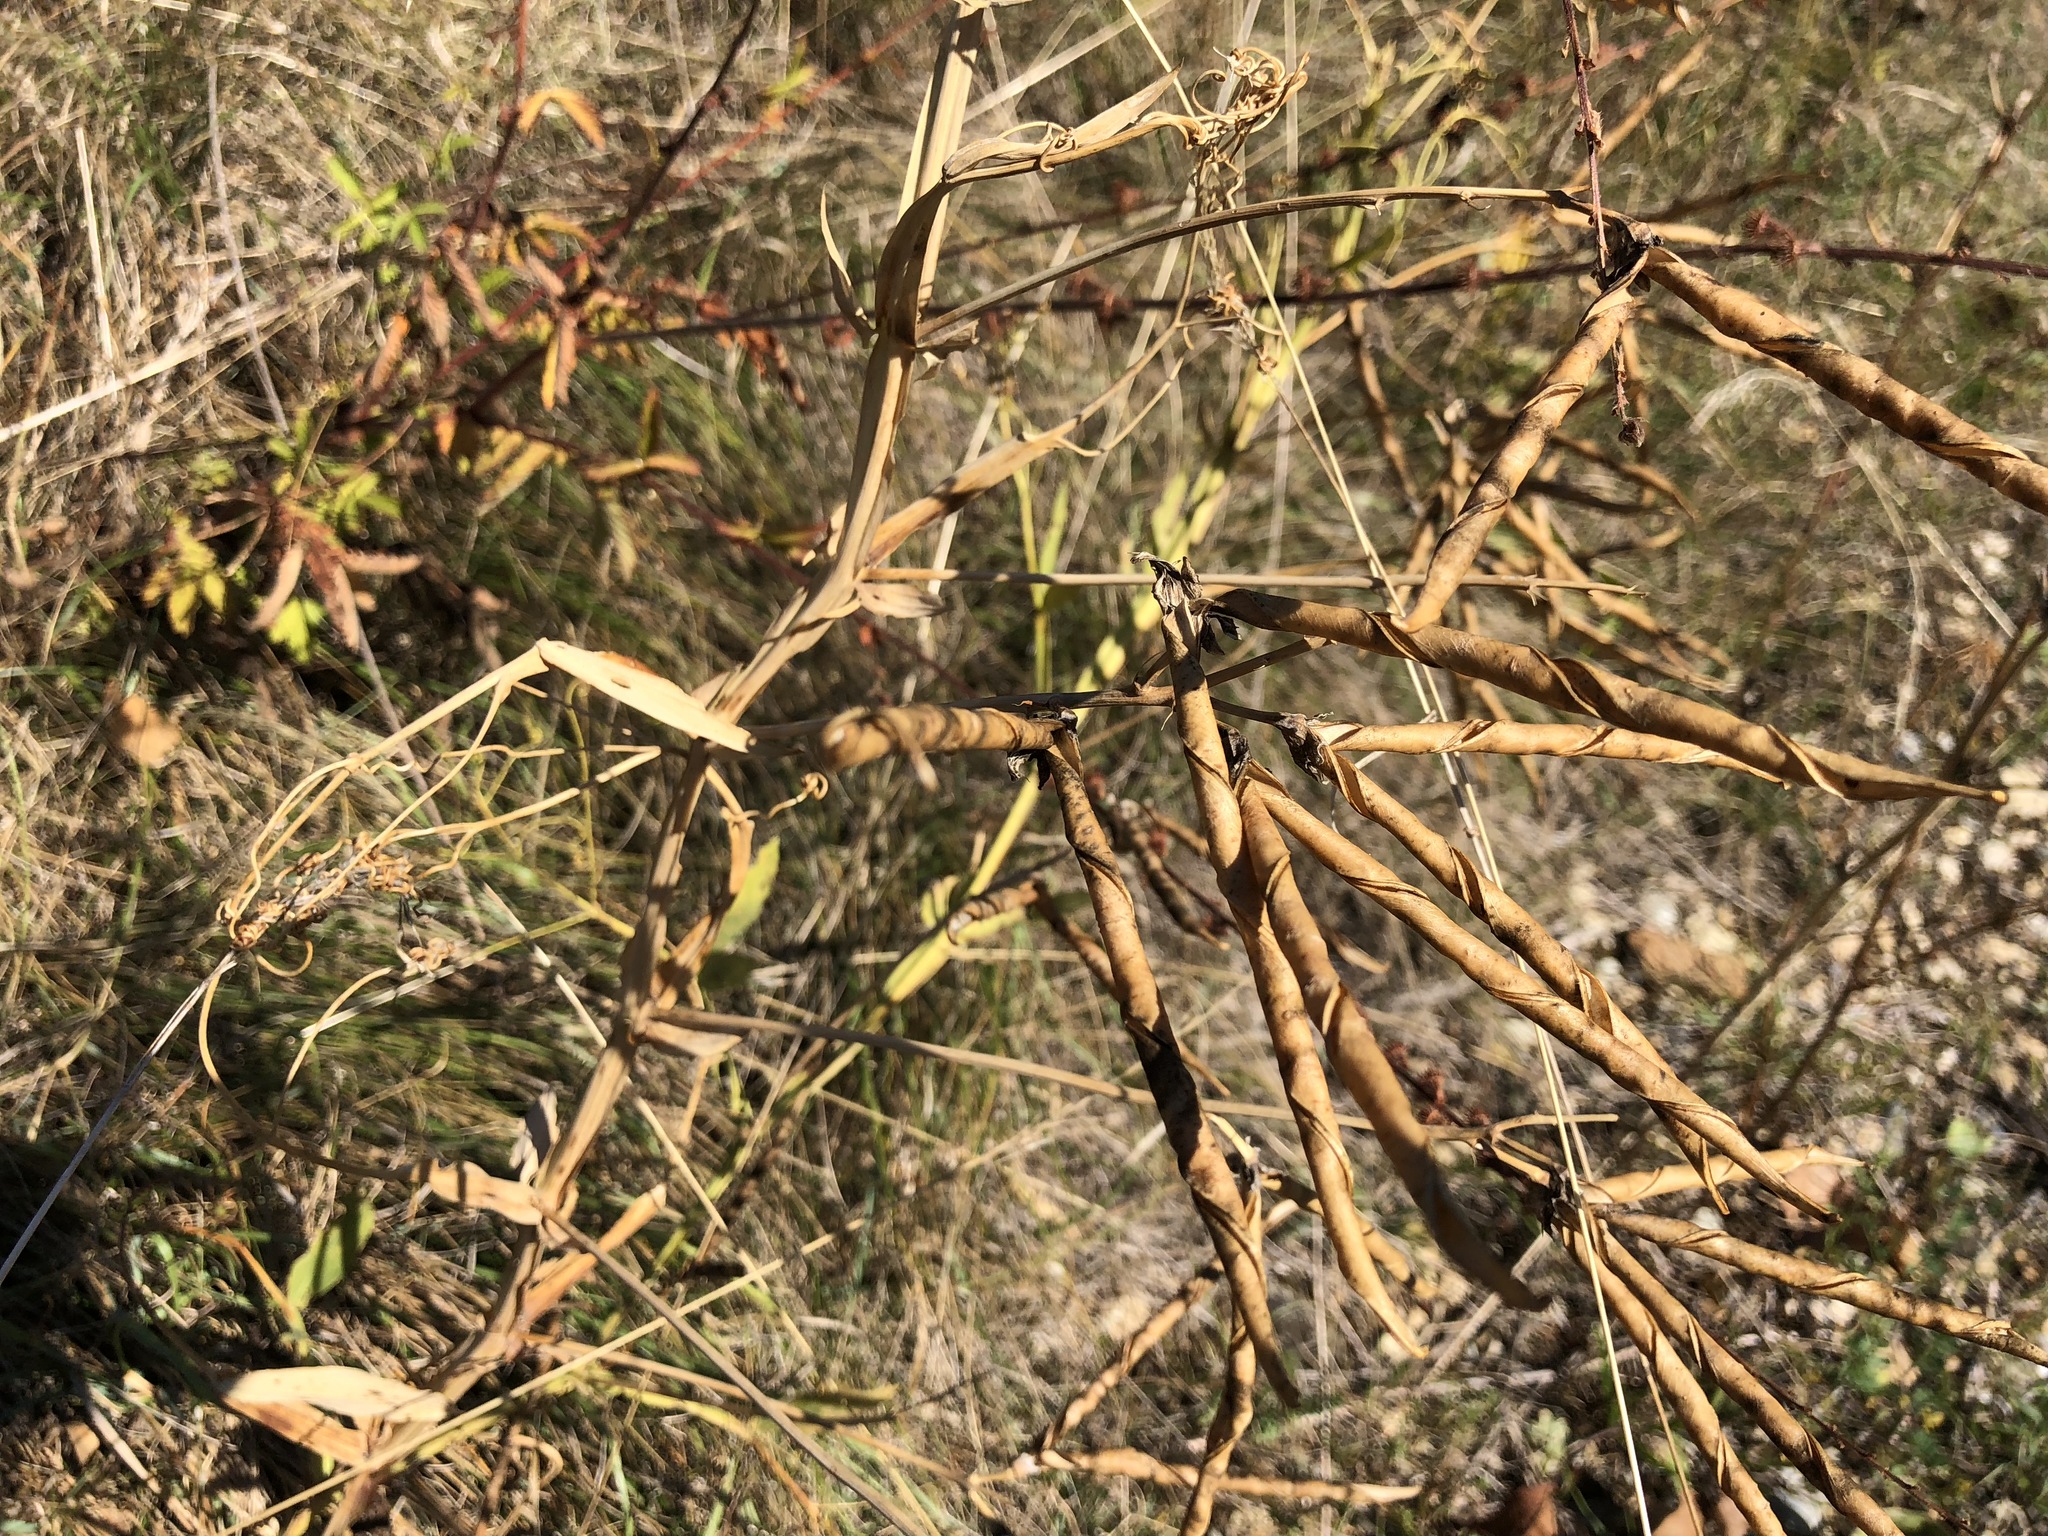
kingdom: Plantae
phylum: Tracheophyta
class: Magnoliopsida
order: Fabales
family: Fabaceae
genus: Lathyrus
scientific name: Lathyrus latifolius
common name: Perennial pea
